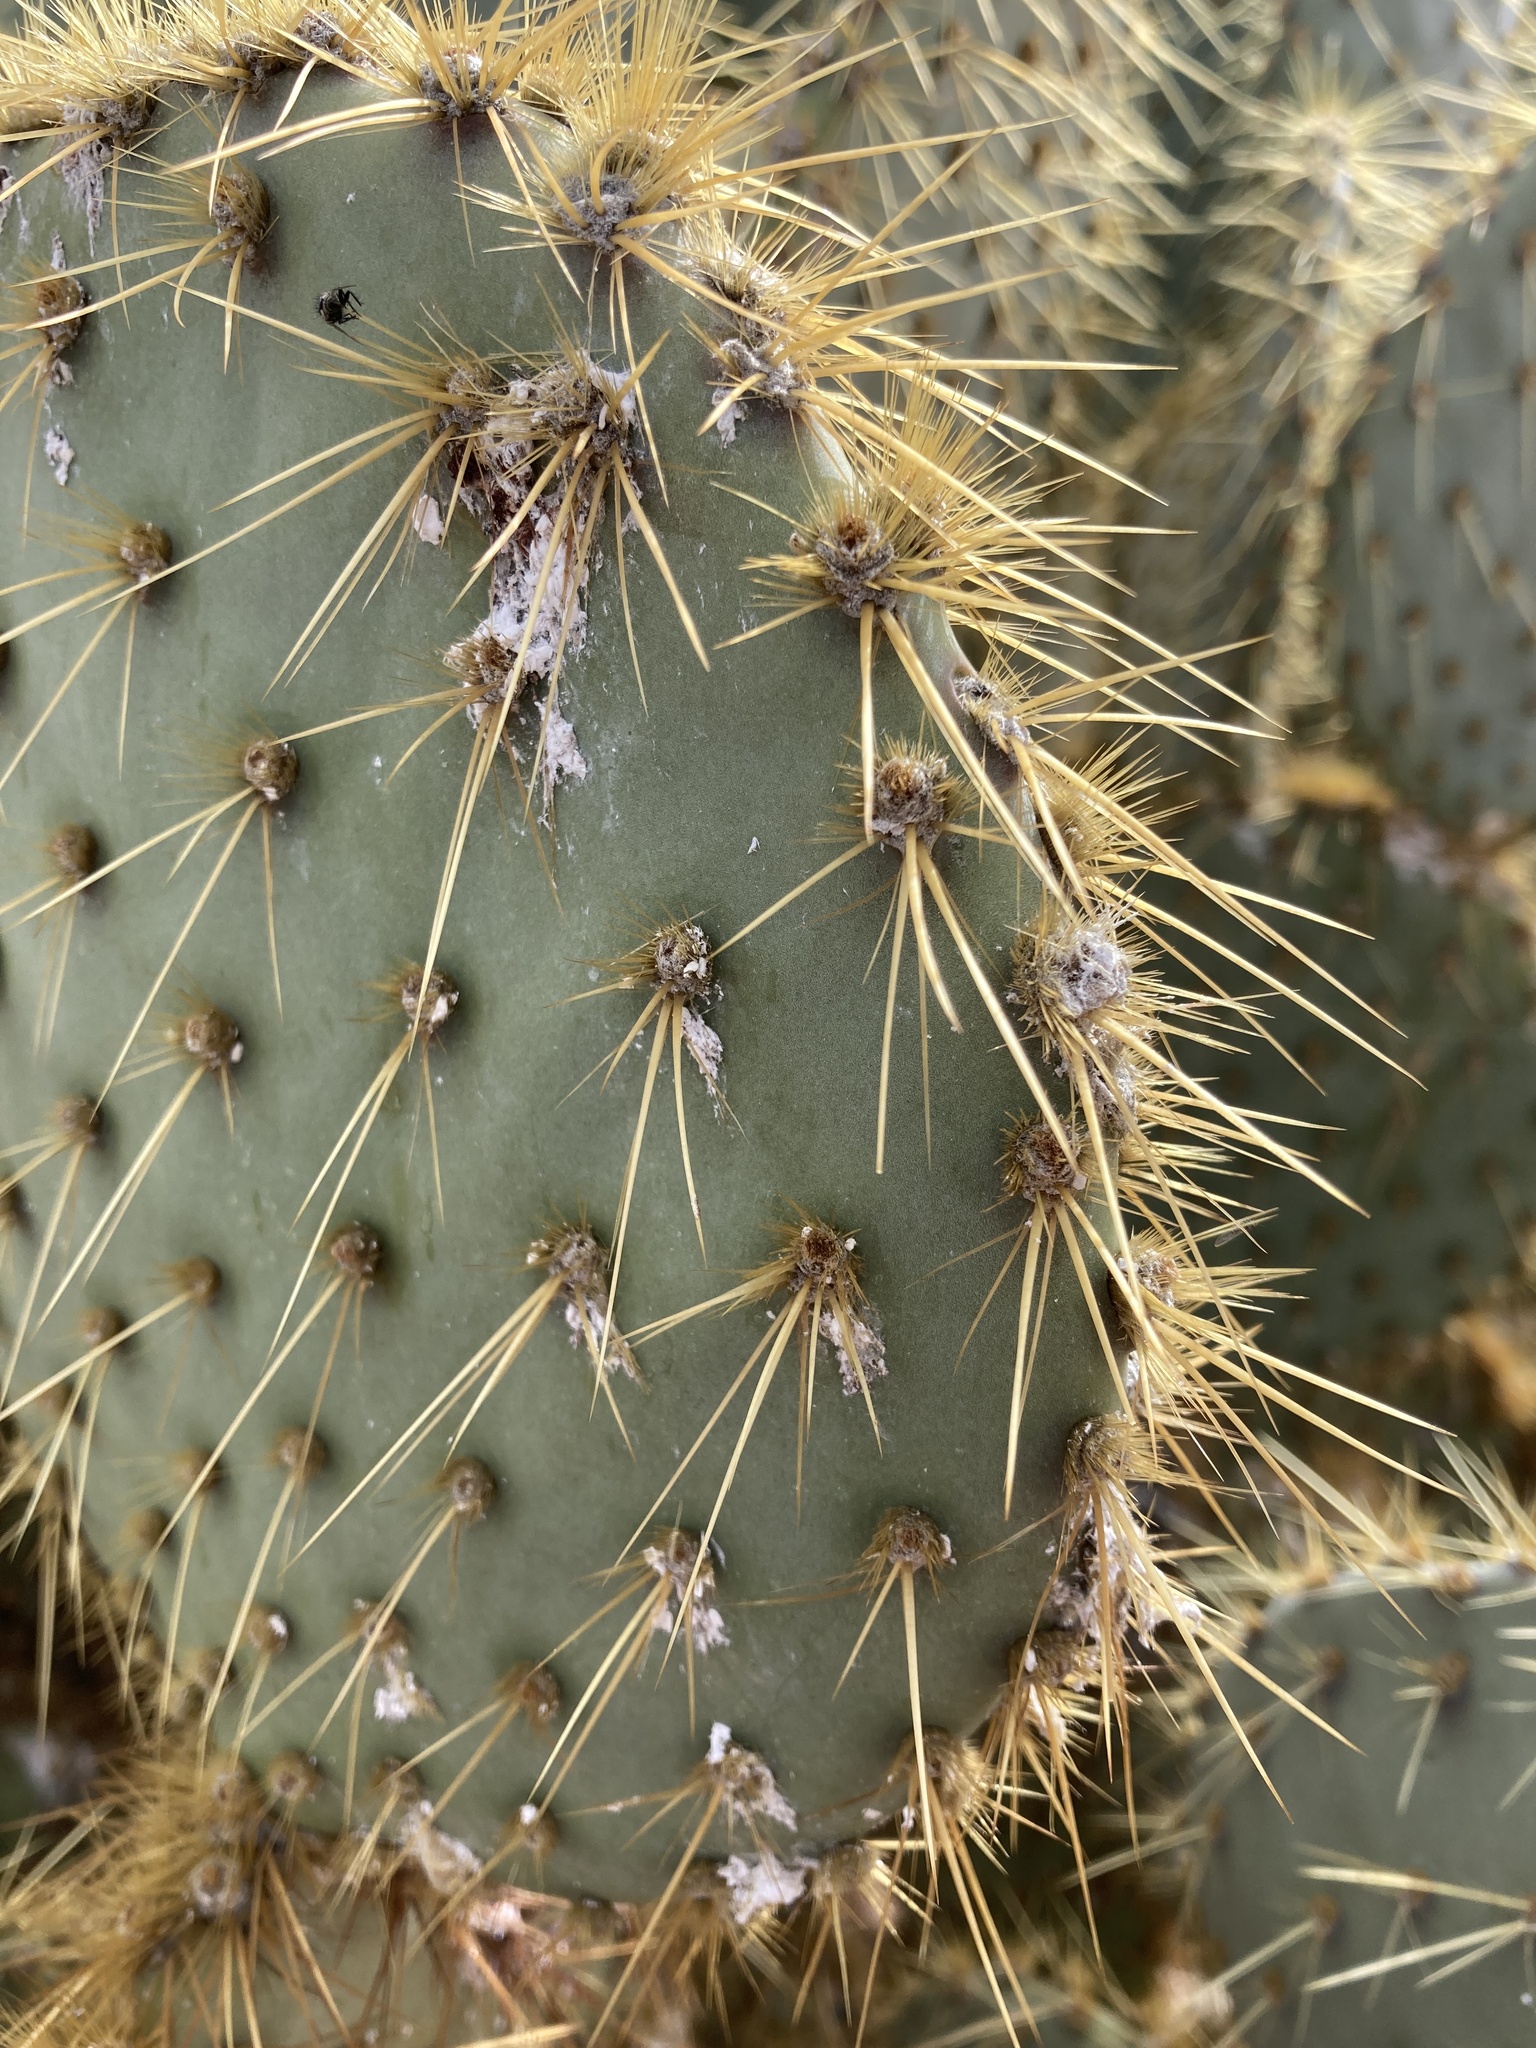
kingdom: Plantae
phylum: Tracheophyta
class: Magnoliopsida
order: Caryophyllales
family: Cactaceae
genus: Opuntia
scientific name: Opuntia chlorotica
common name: Dollar-joint prickly-pear
